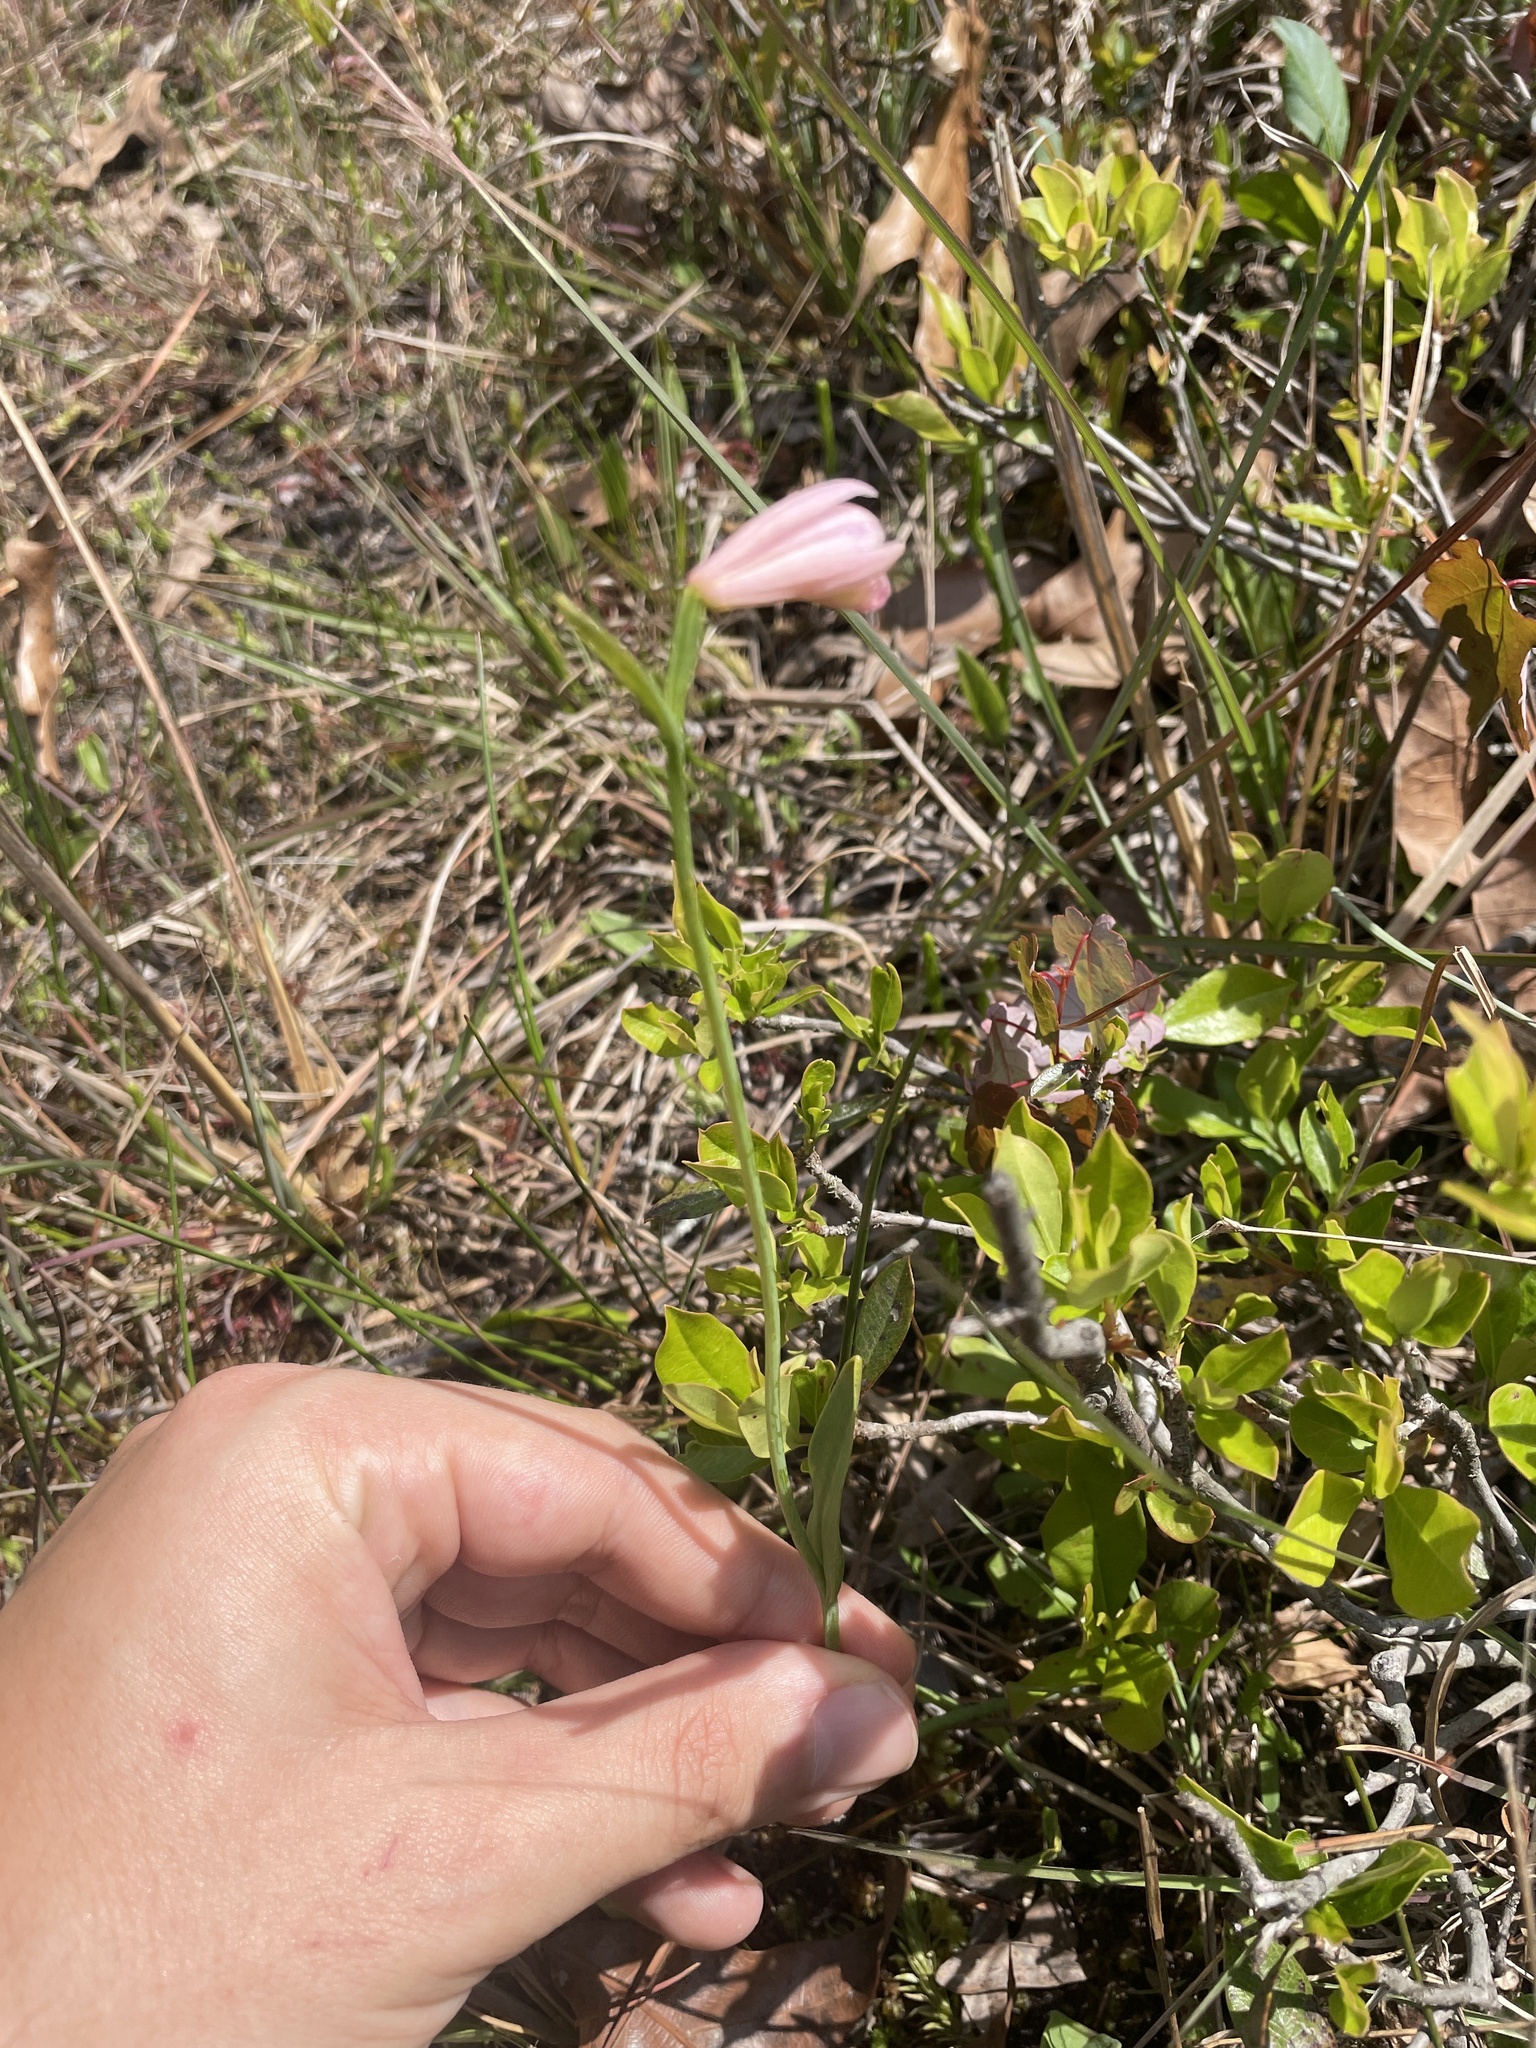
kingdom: Plantae
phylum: Tracheophyta
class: Liliopsida
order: Asparagales
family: Orchidaceae
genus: Pogonia
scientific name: Pogonia ophioglossoides
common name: Rose pogonia
